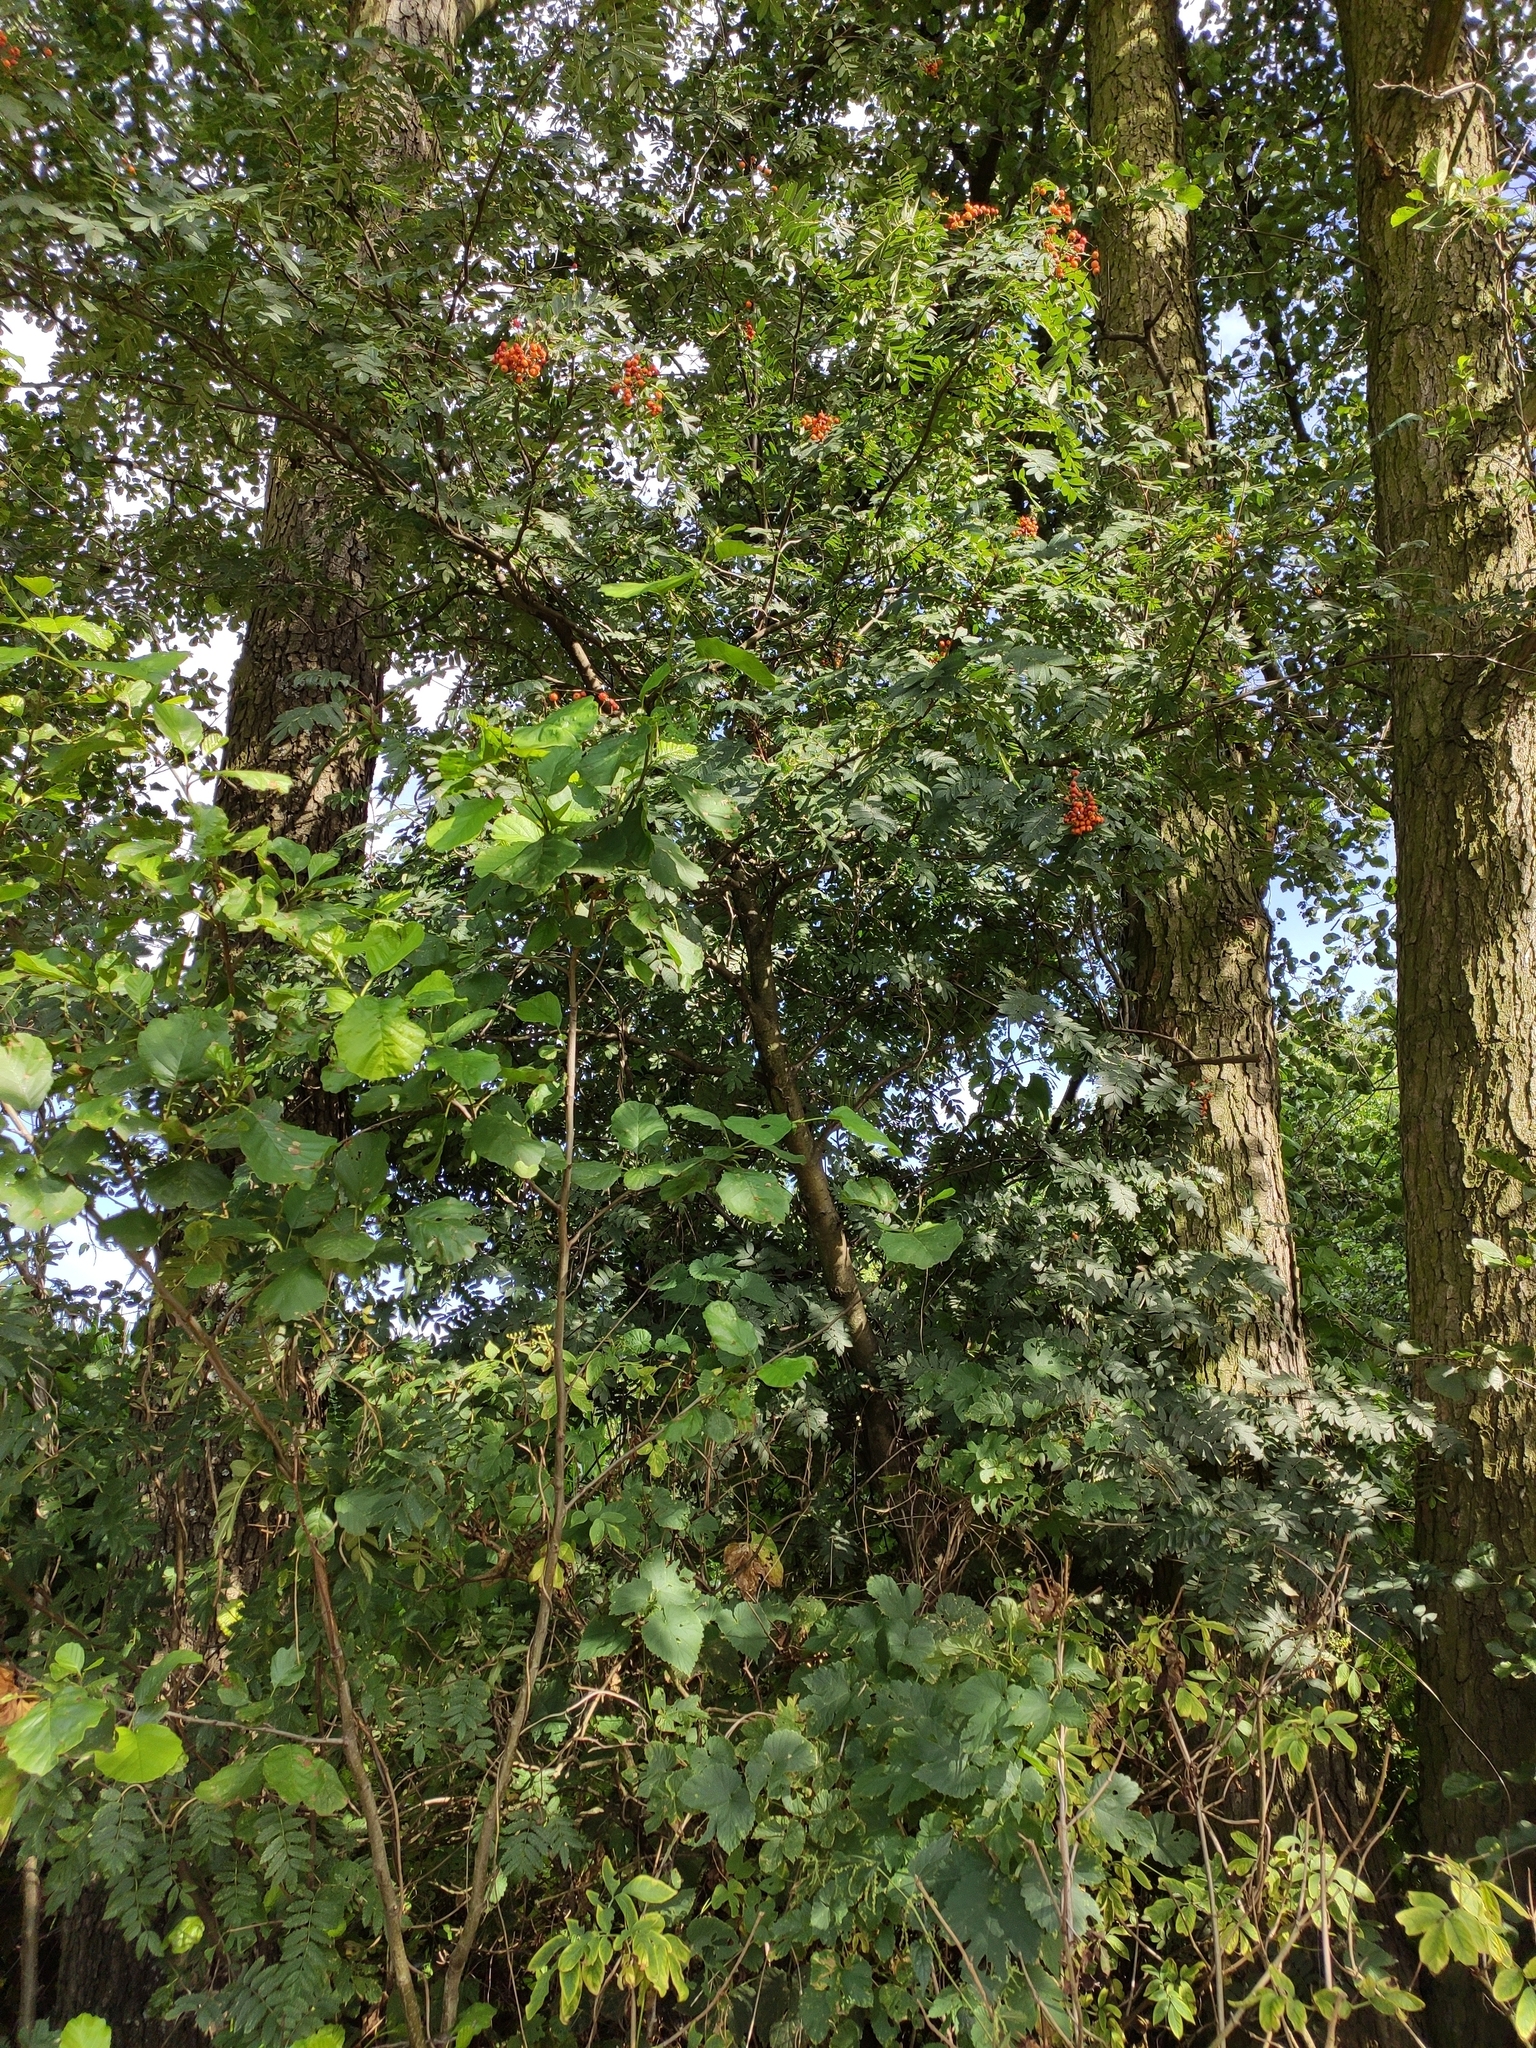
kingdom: Plantae
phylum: Tracheophyta
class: Magnoliopsida
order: Rosales
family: Rosaceae
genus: Sorbus
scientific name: Sorbus aucuparia
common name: Rowan
